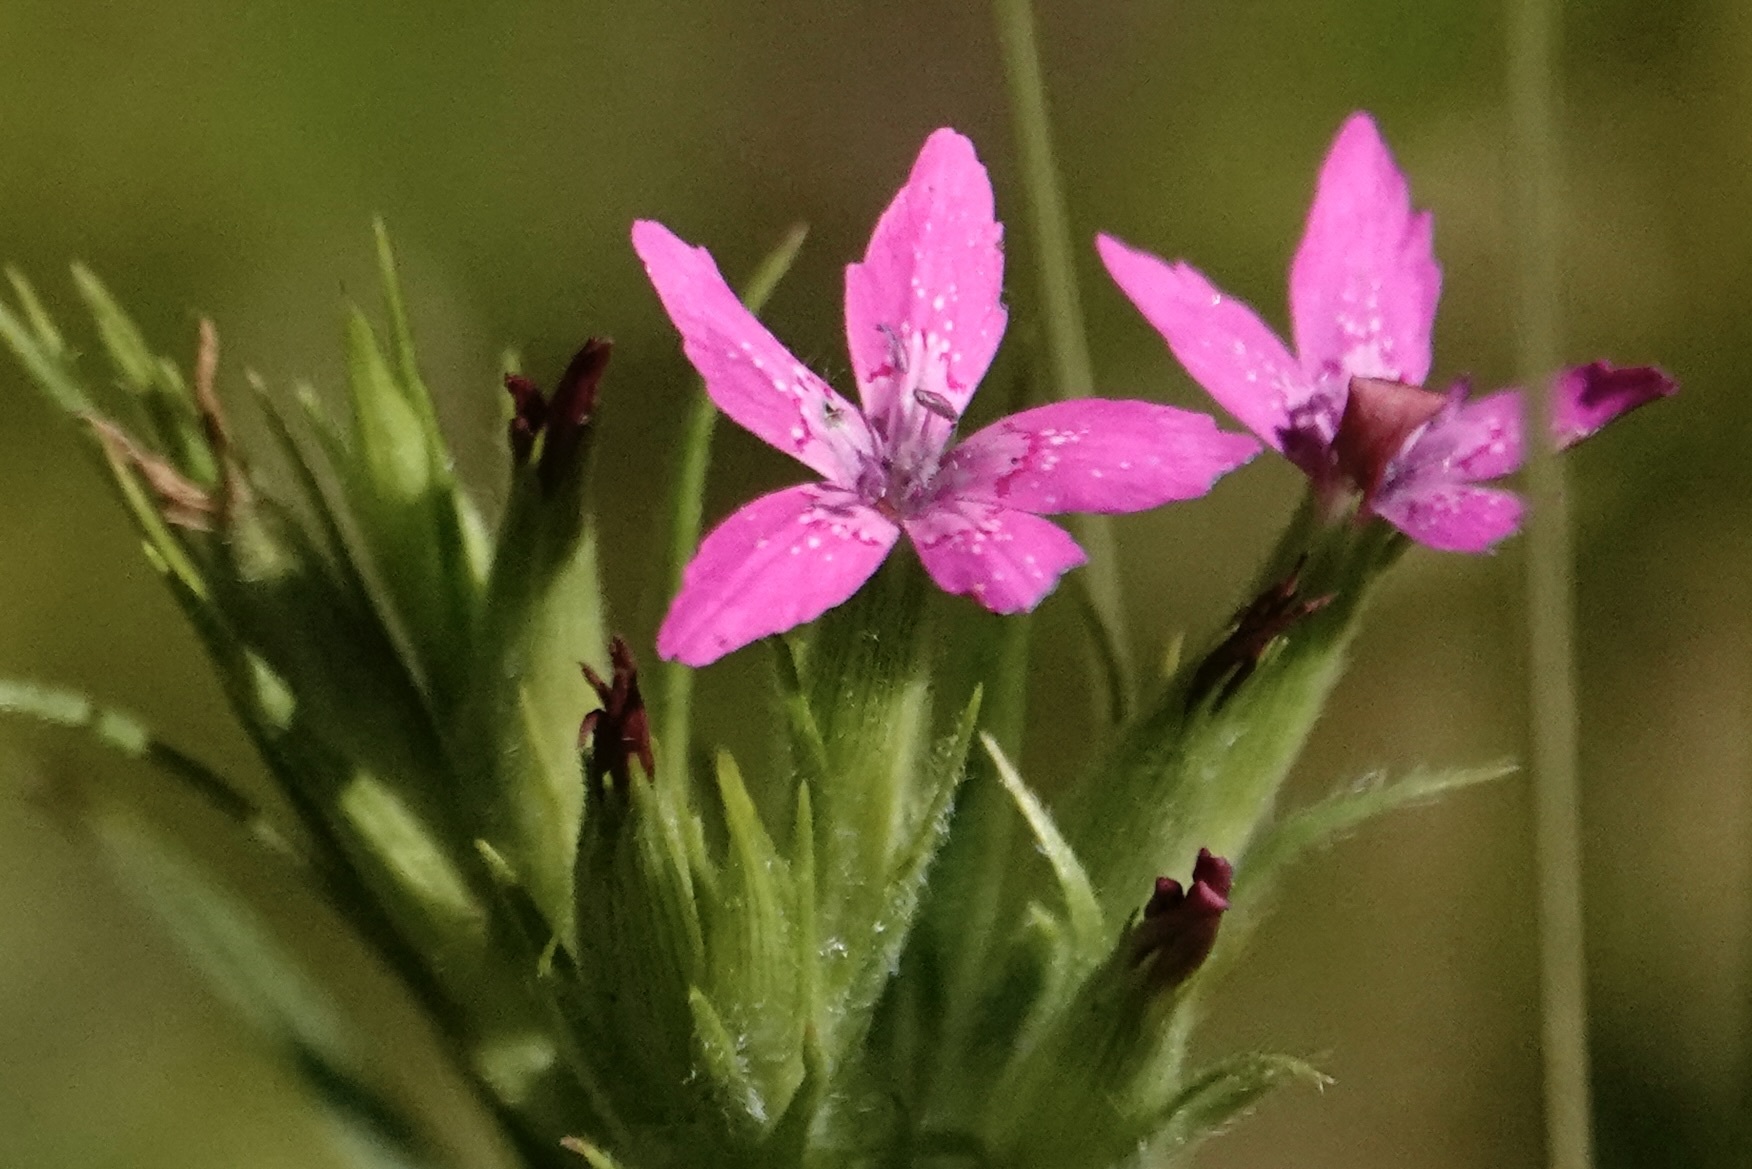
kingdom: Plantae
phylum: Tracheophyta
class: Magnoliopsida
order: Caryophyllales
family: Caryophyllaceae
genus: Dianthus
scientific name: Dianthus armeria
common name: Deptford pink
